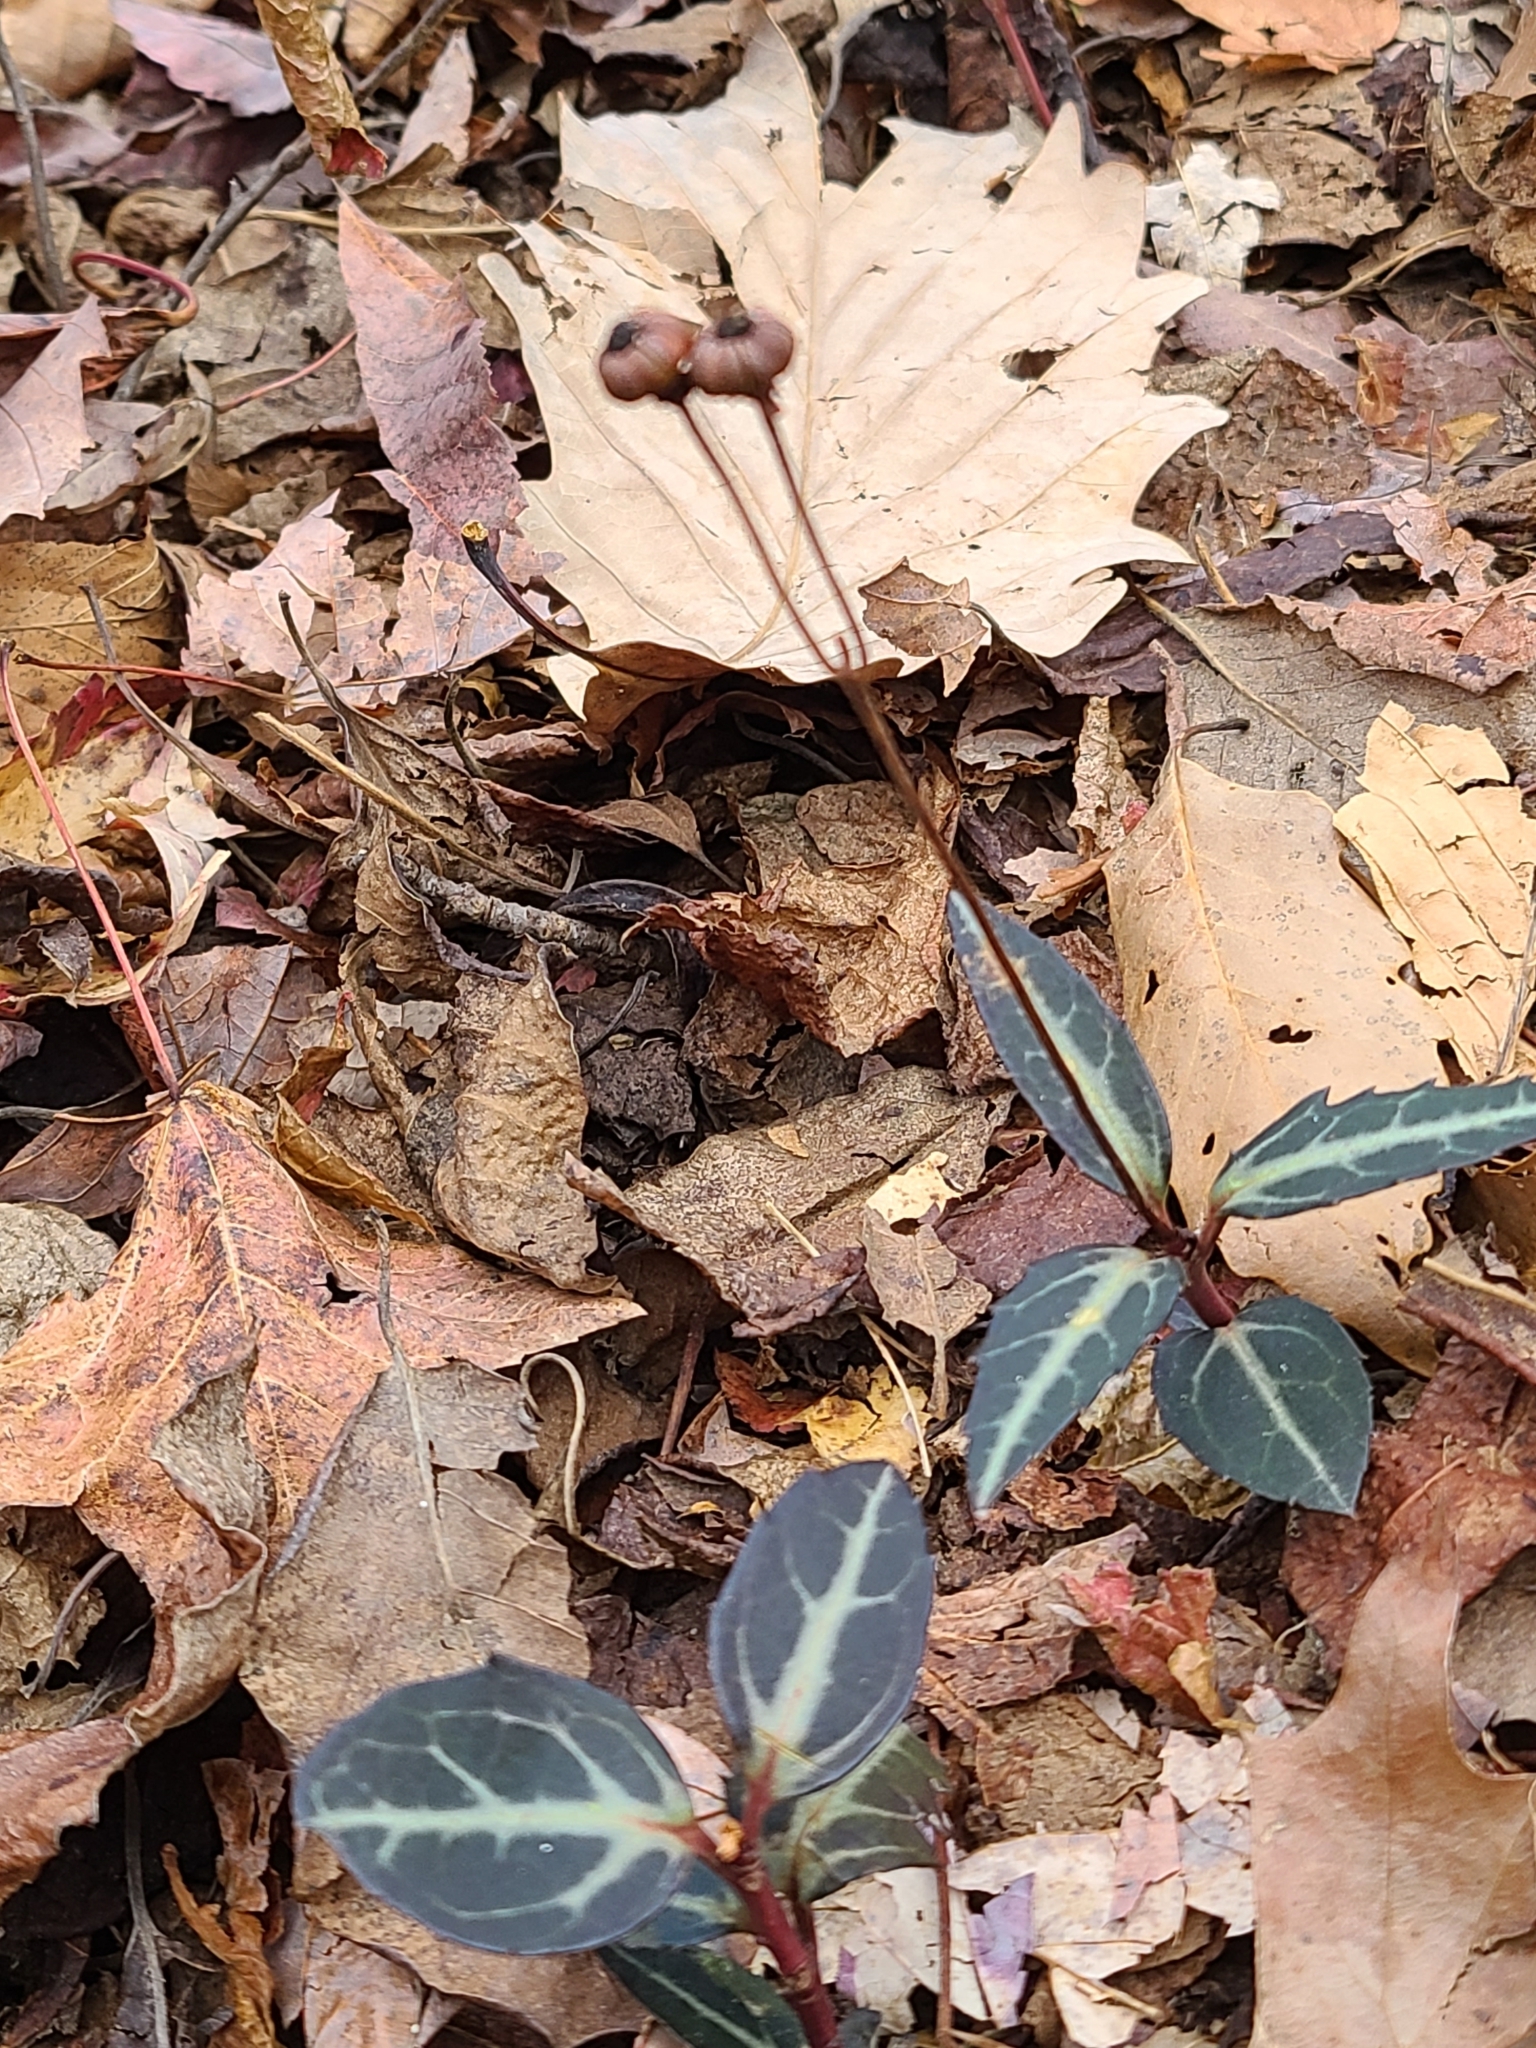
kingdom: Plantae
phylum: Tracheophyta
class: Magnoliopsida
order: Ericales
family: Ericaceae
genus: Chimaphila
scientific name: Chimaphila maculata
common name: Spotted pipsissewa
